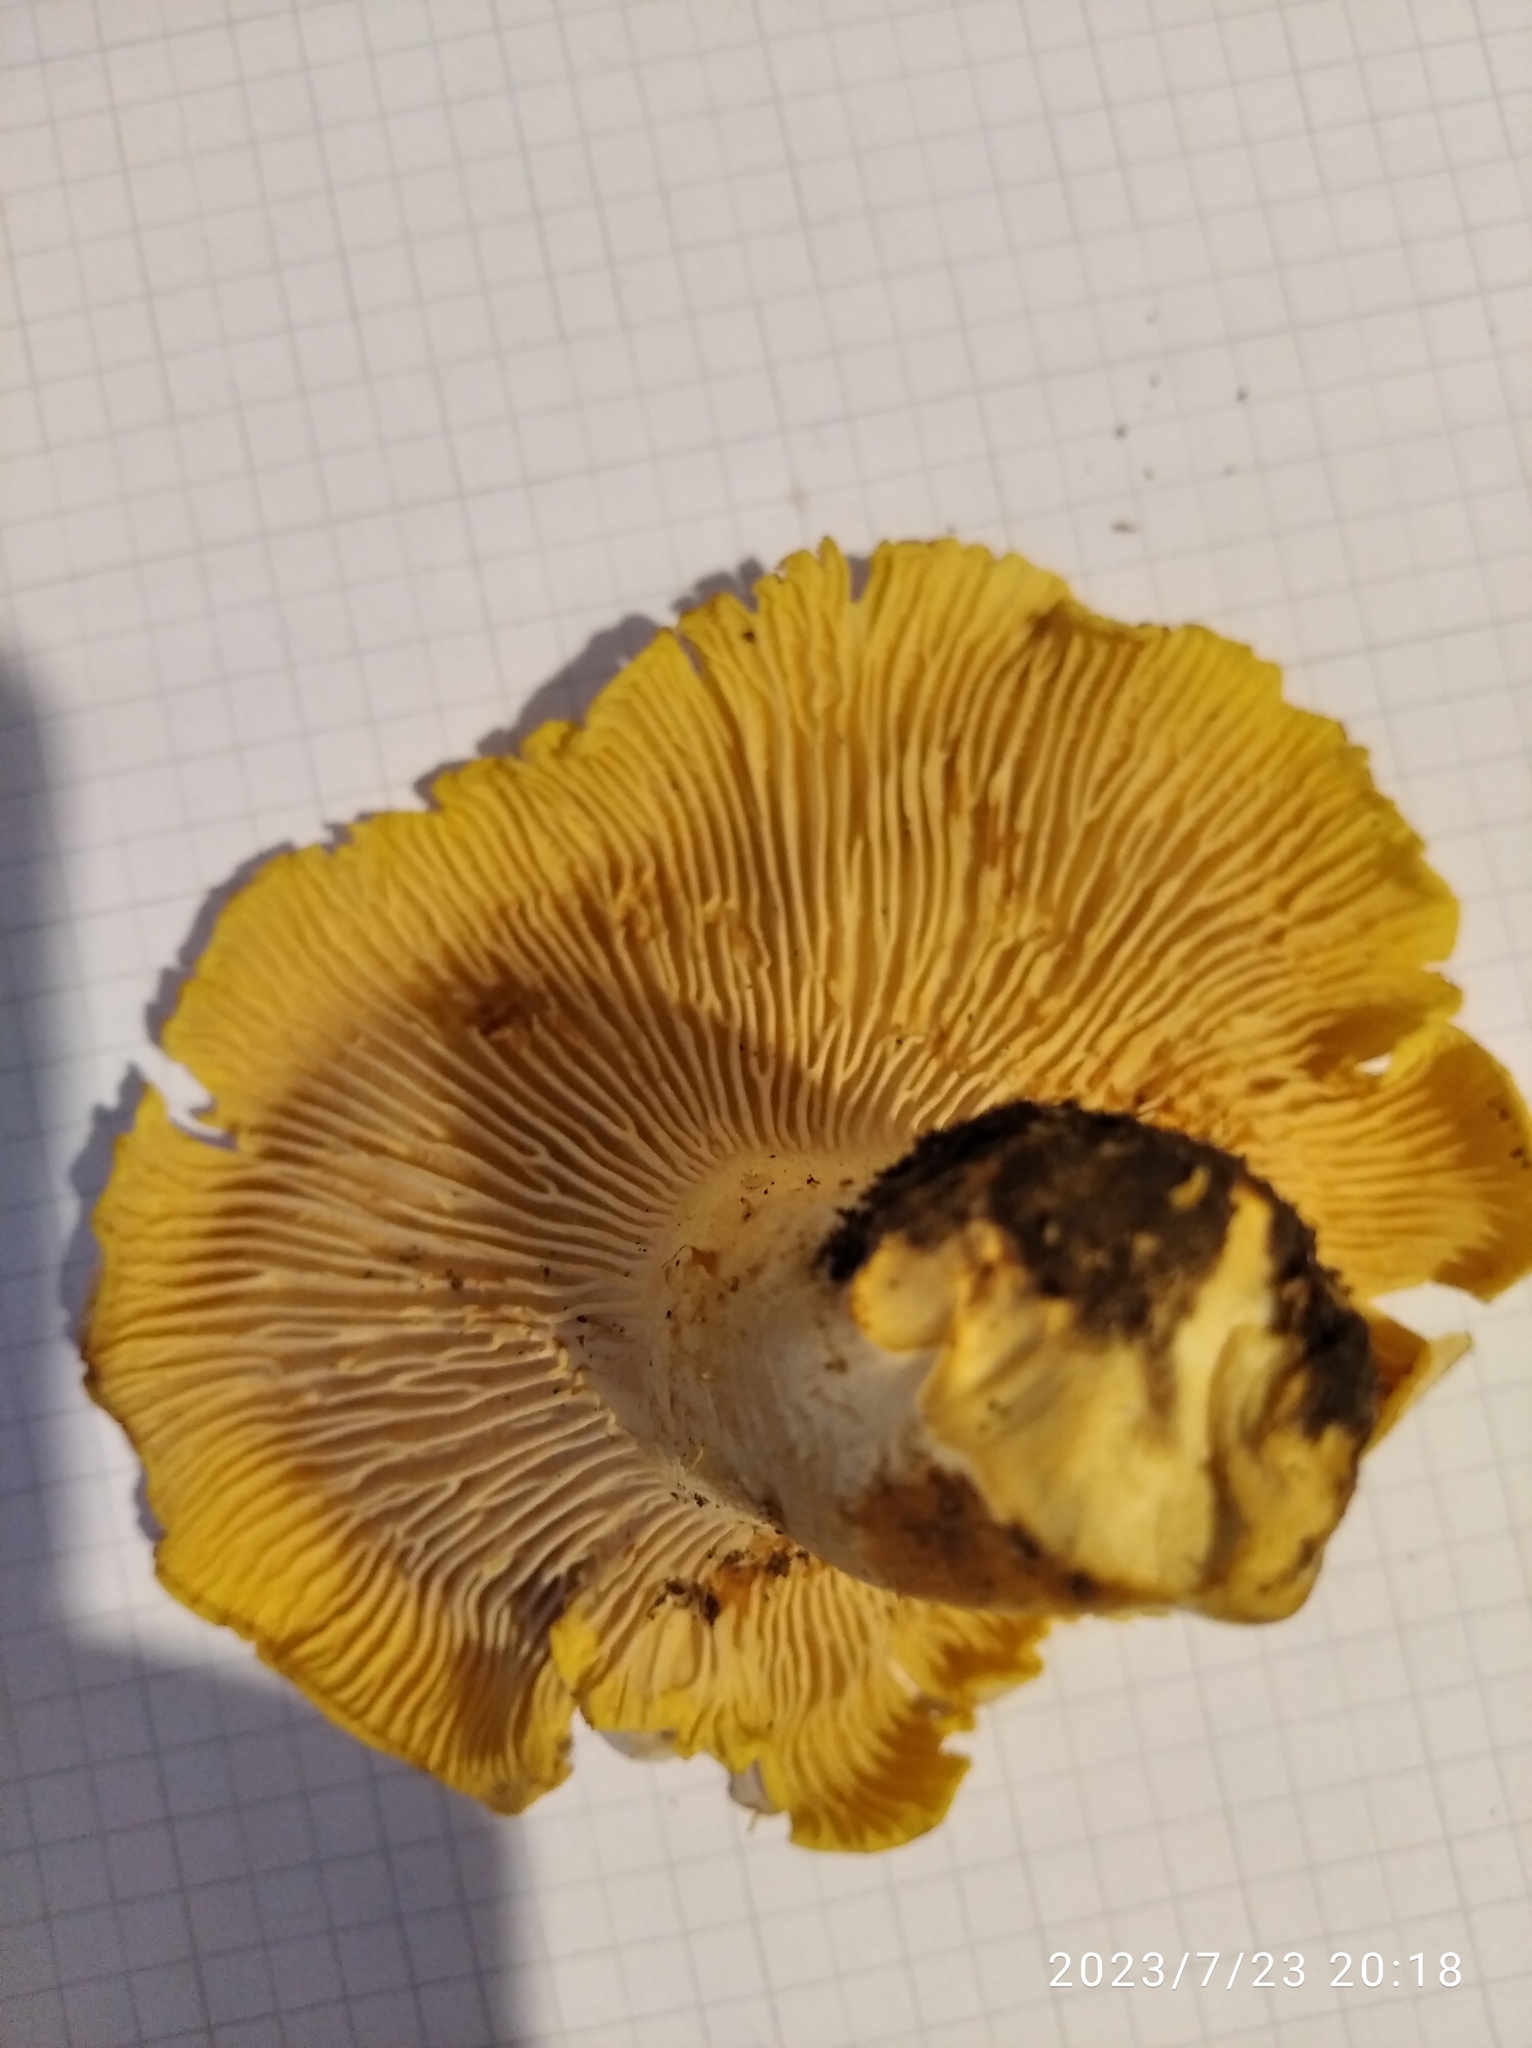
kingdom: Fungi
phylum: Basidiomycota
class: Agaricomycetes
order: Cantharellales
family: Hydnaceae
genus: Cantharellus
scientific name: Cantharellus cibarius
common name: Chanterelle
